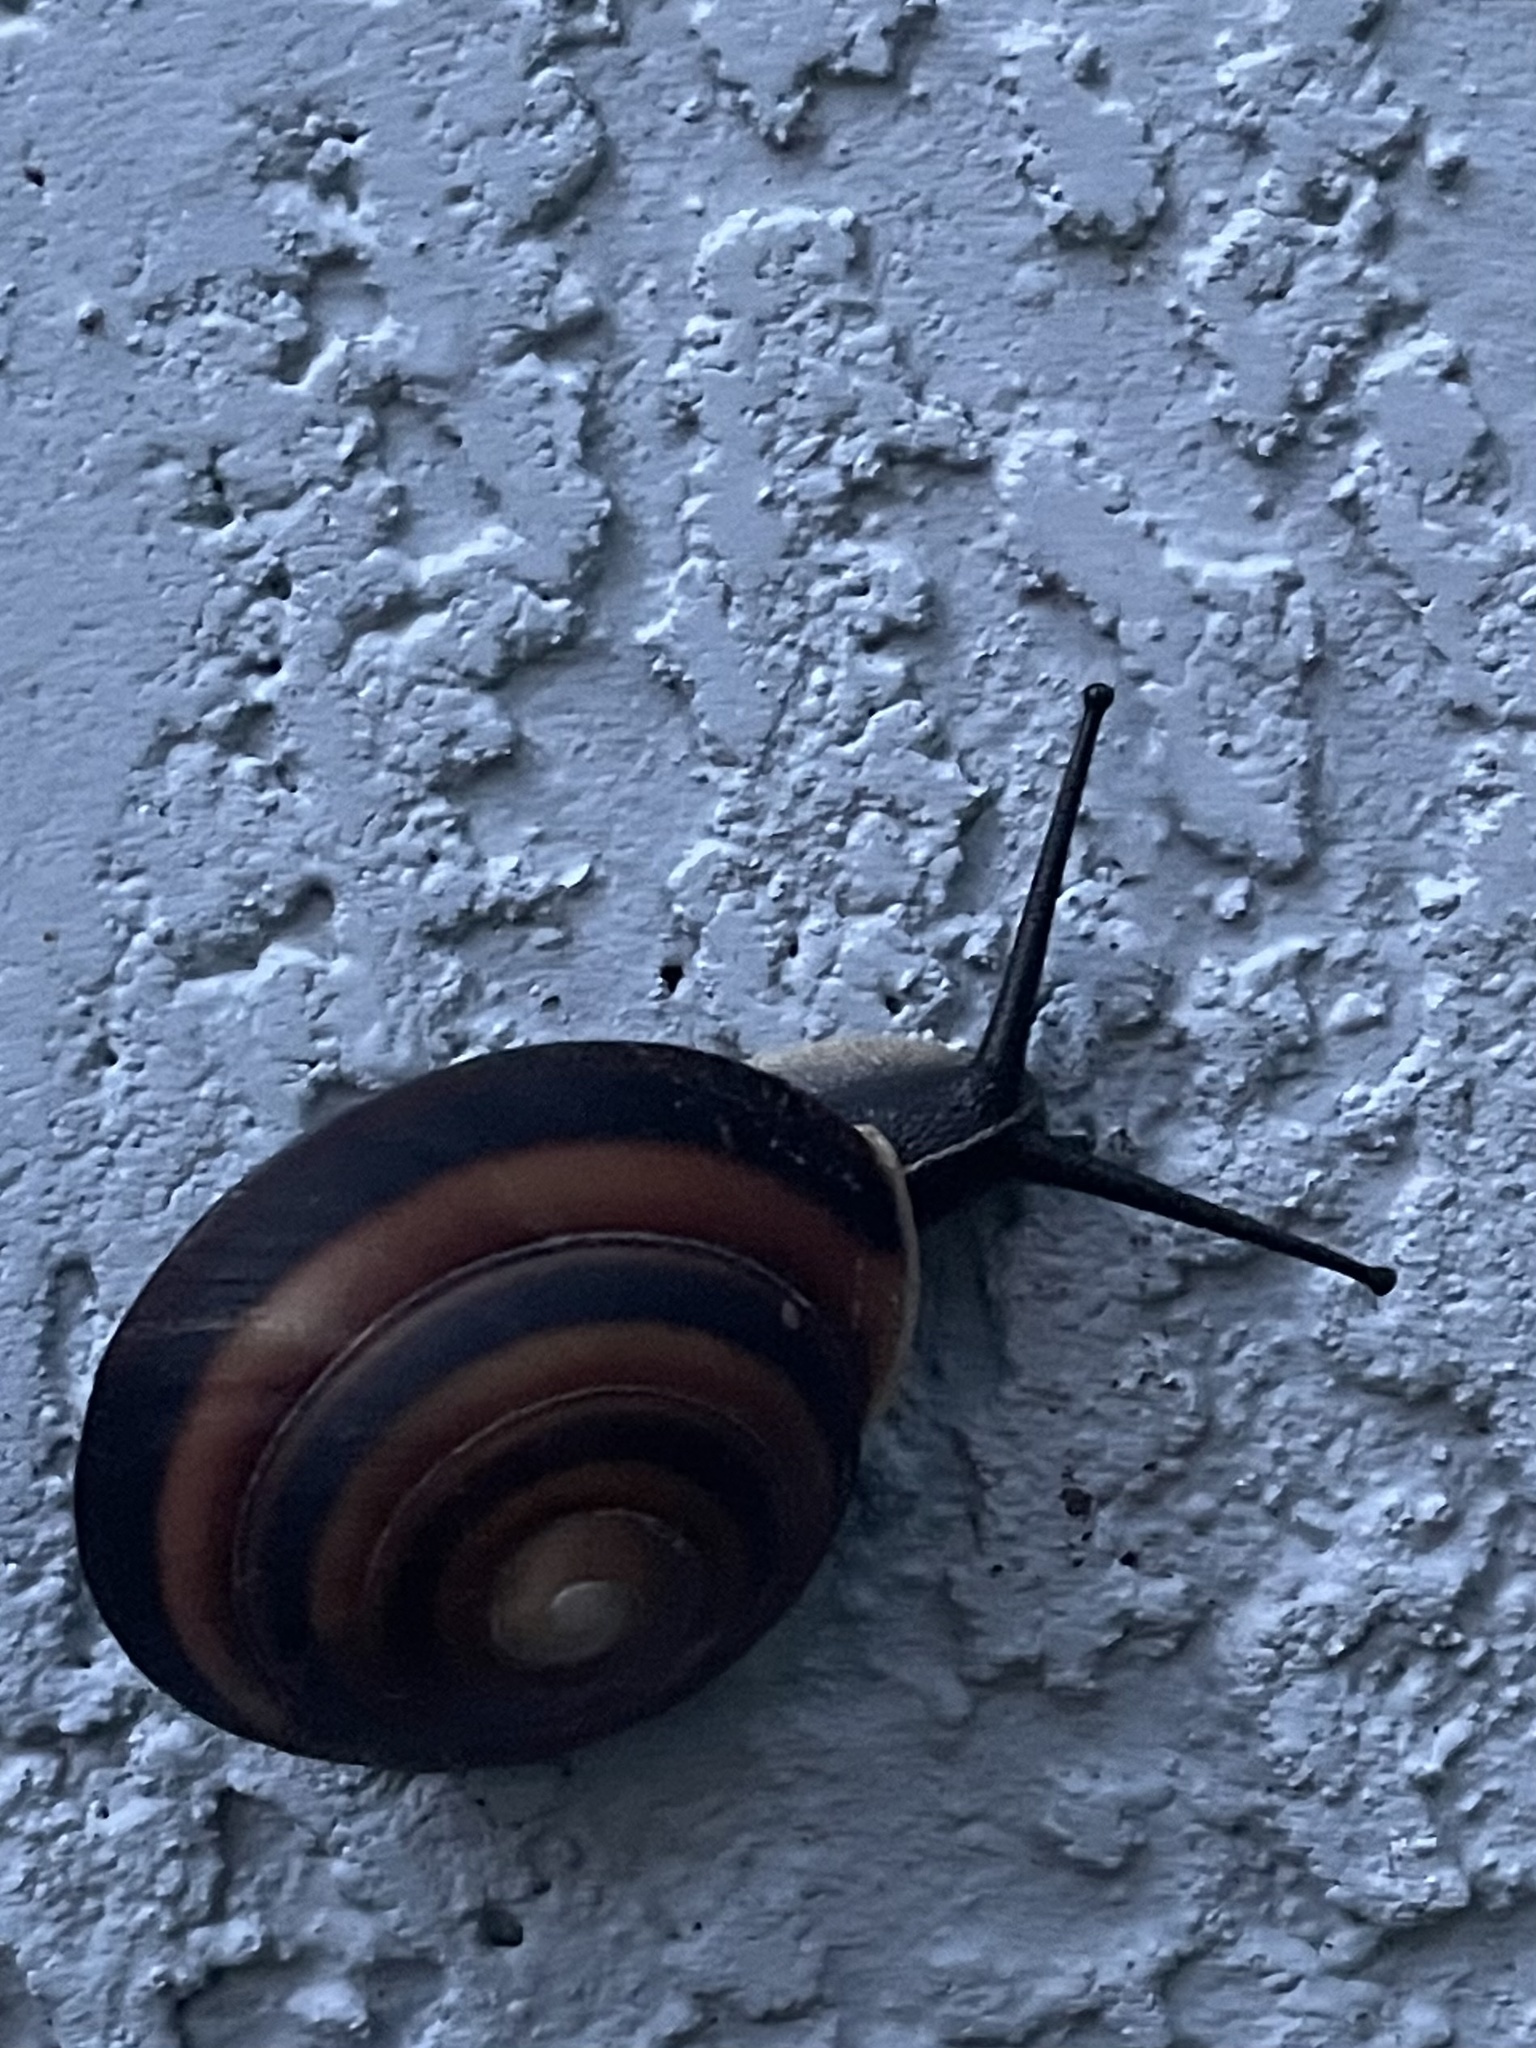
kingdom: Animalia
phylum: Mollusca
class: Gastropoda
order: Stylommatophora
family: Solaropsidae
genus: Caracolus
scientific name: Caracolus marginella
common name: Banded caracol
